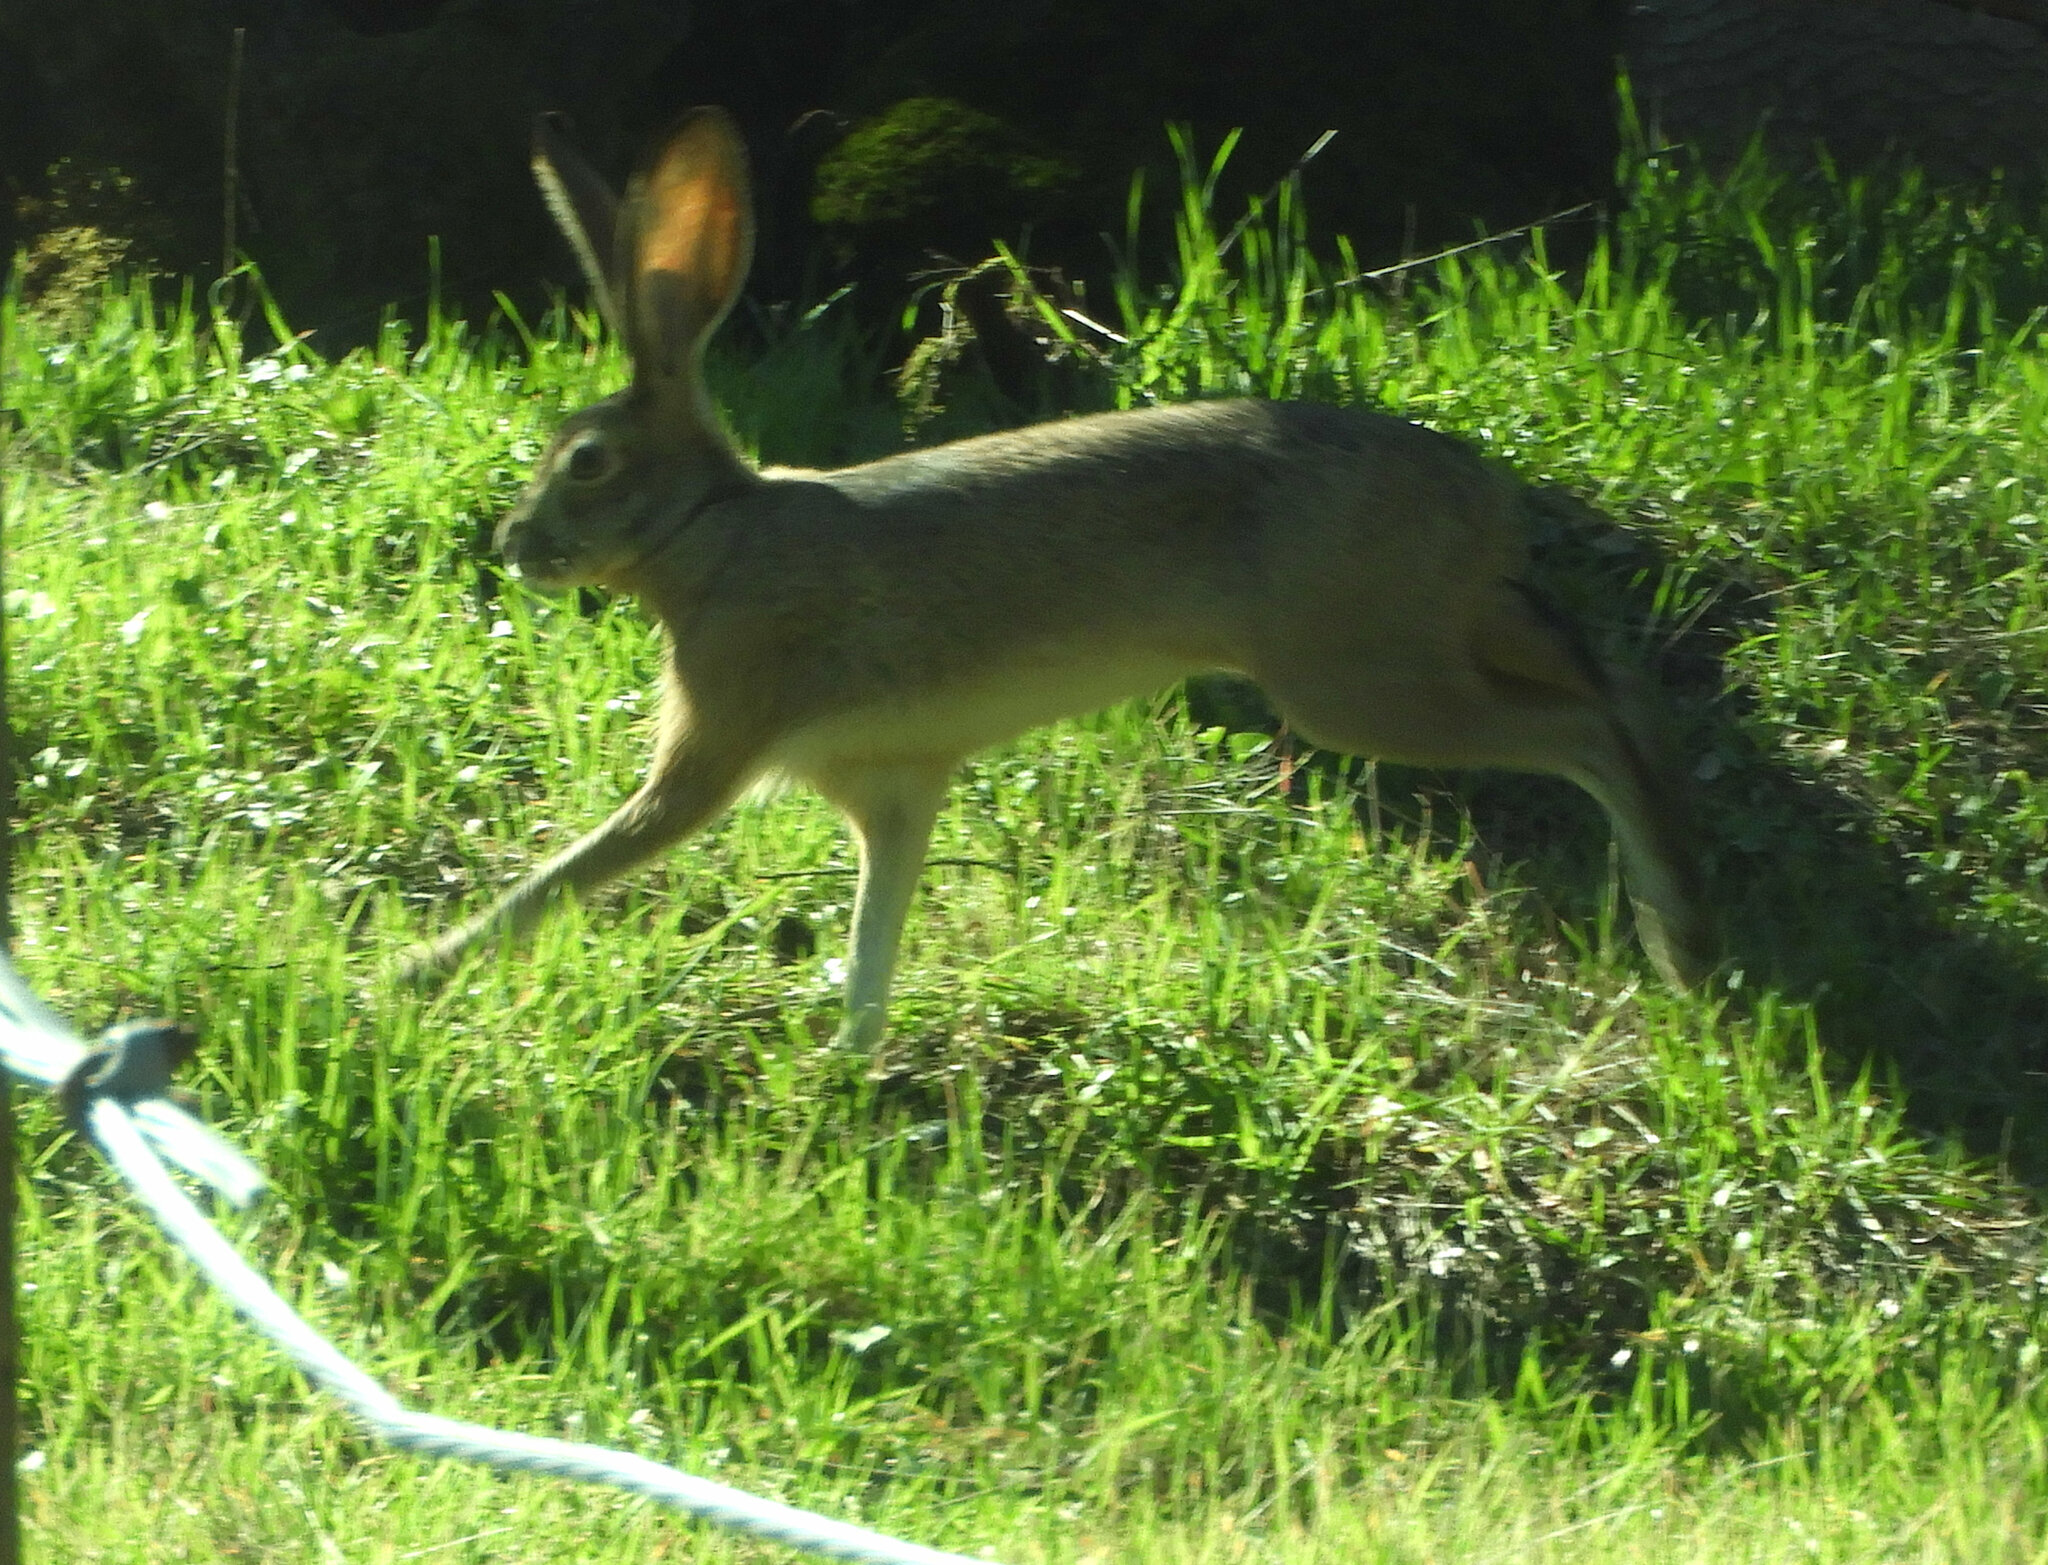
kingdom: Animalia
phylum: Chordata
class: Mammalia
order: Lagomorpha
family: Leporidae
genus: Lepus
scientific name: Lepus californicus
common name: Black-tailed jackrabbit
